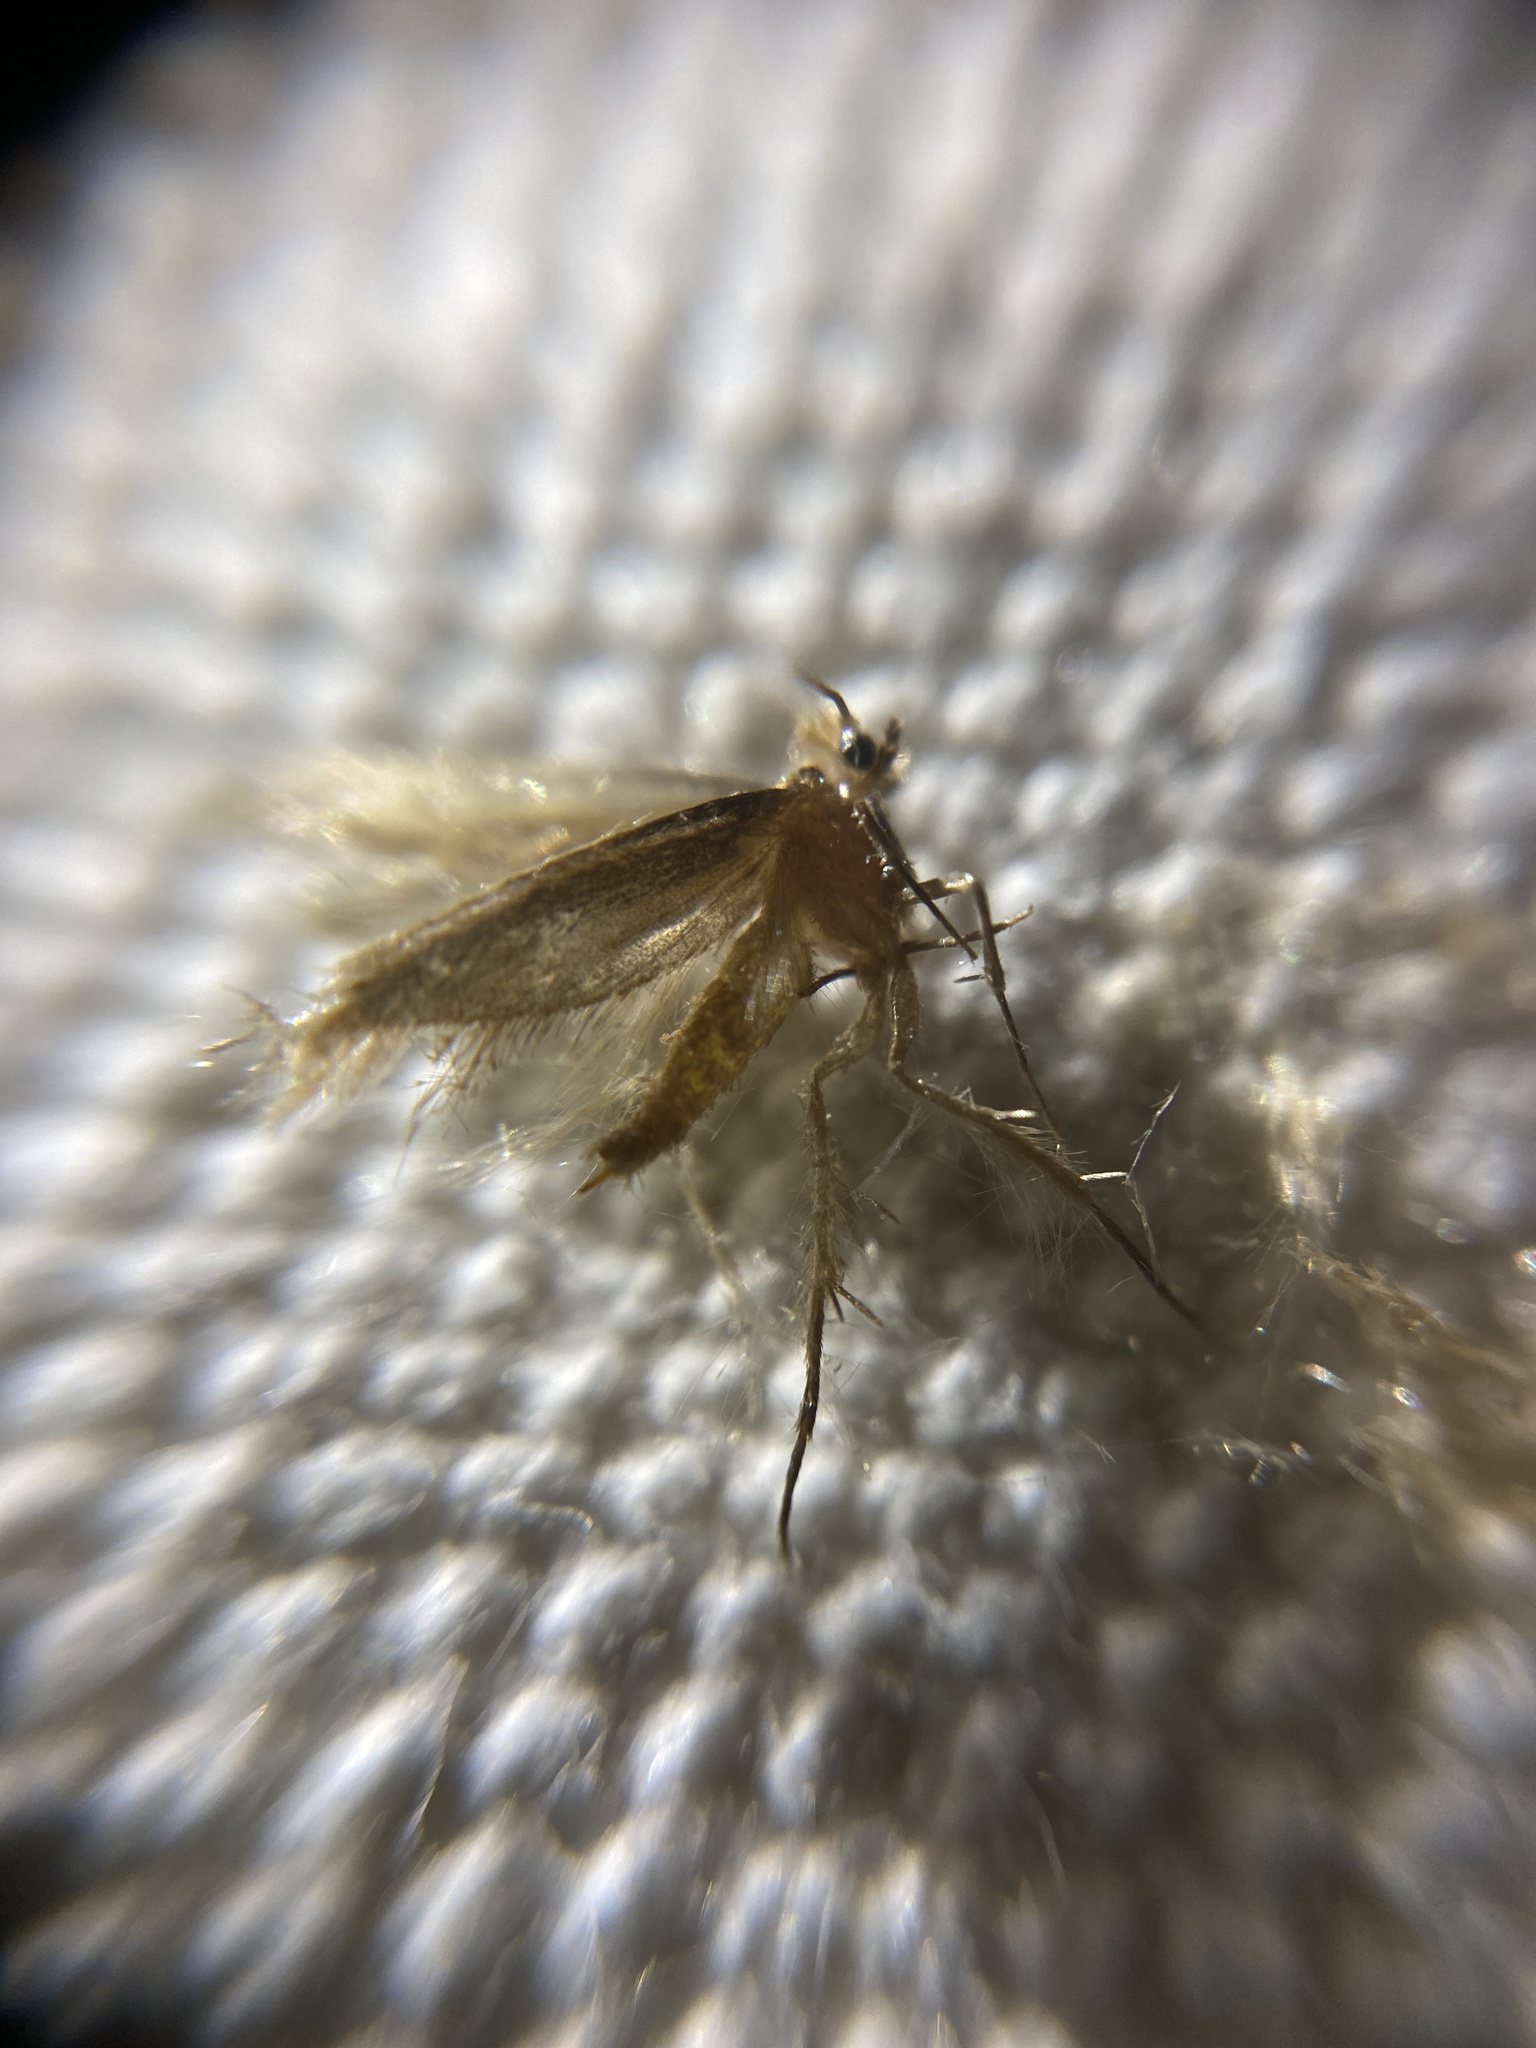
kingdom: Animalia
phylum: Arthropoda
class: Insecta
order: Lepidoptera
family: Tineidae
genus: Tineola
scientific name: Tineola bisselliella
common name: Webbing clothes moth
